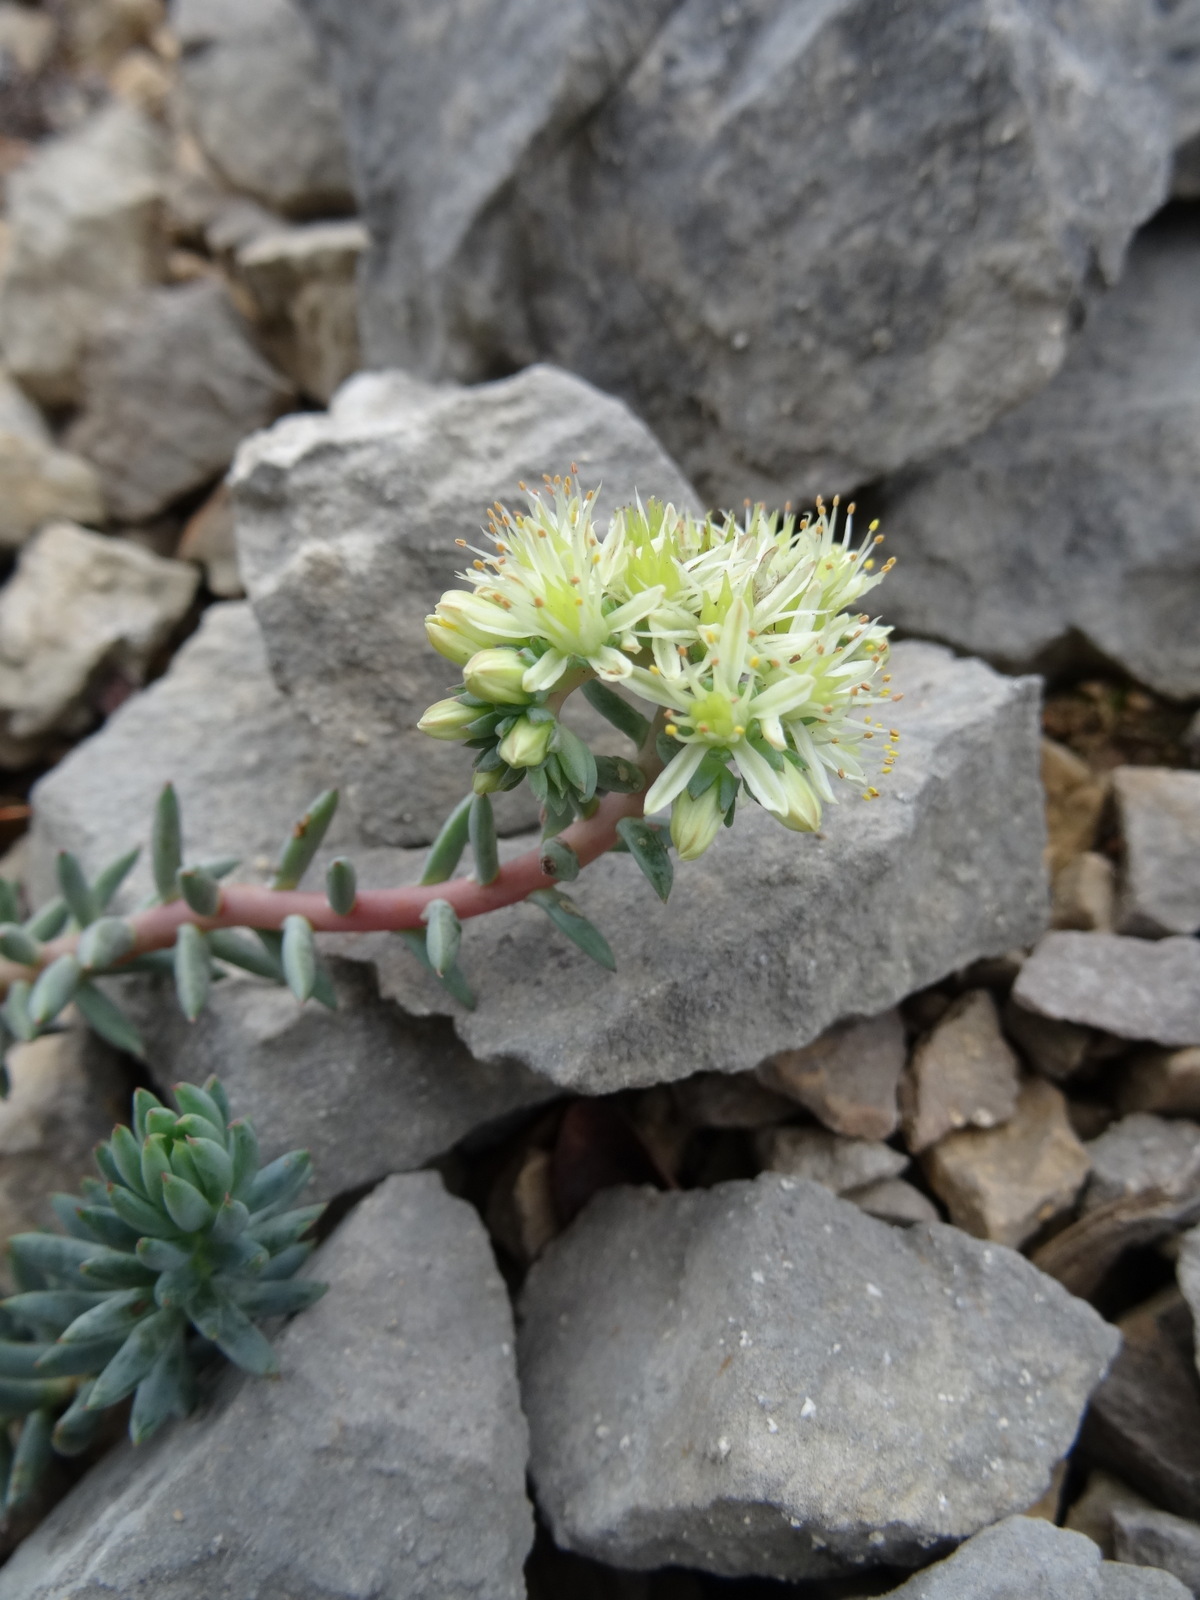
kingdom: Plantae
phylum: Tracheophyta
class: Magnoliopsida
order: Saxifragales
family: Crassulaceae
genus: Petrosedum
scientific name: Petrosedum sediforme
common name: Pale stonecrop
